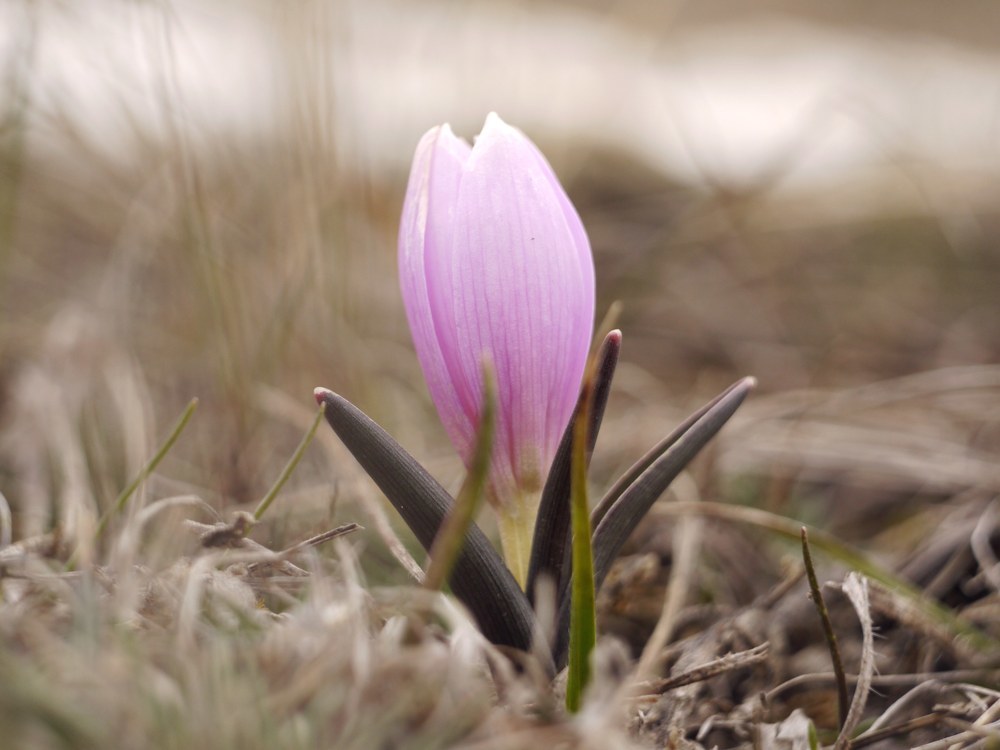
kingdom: Plantae
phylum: Tracheophyta
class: Liliopsida
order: Liliales
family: Colchicaceae
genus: Colchicum
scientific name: Colchicum bulbocodium
